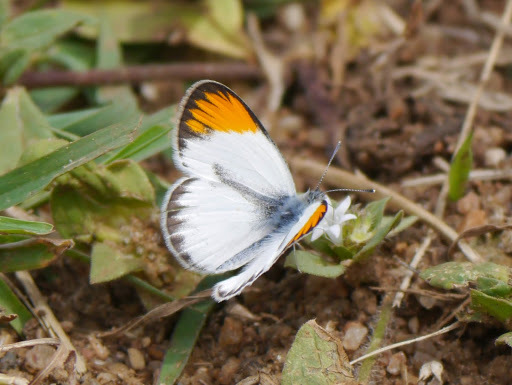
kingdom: Animalia
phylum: Arthropoda
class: Insecta
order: Lepidoptera
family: Pieridae
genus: Colotis
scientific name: Colotis evagore
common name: Desert orange-tip
